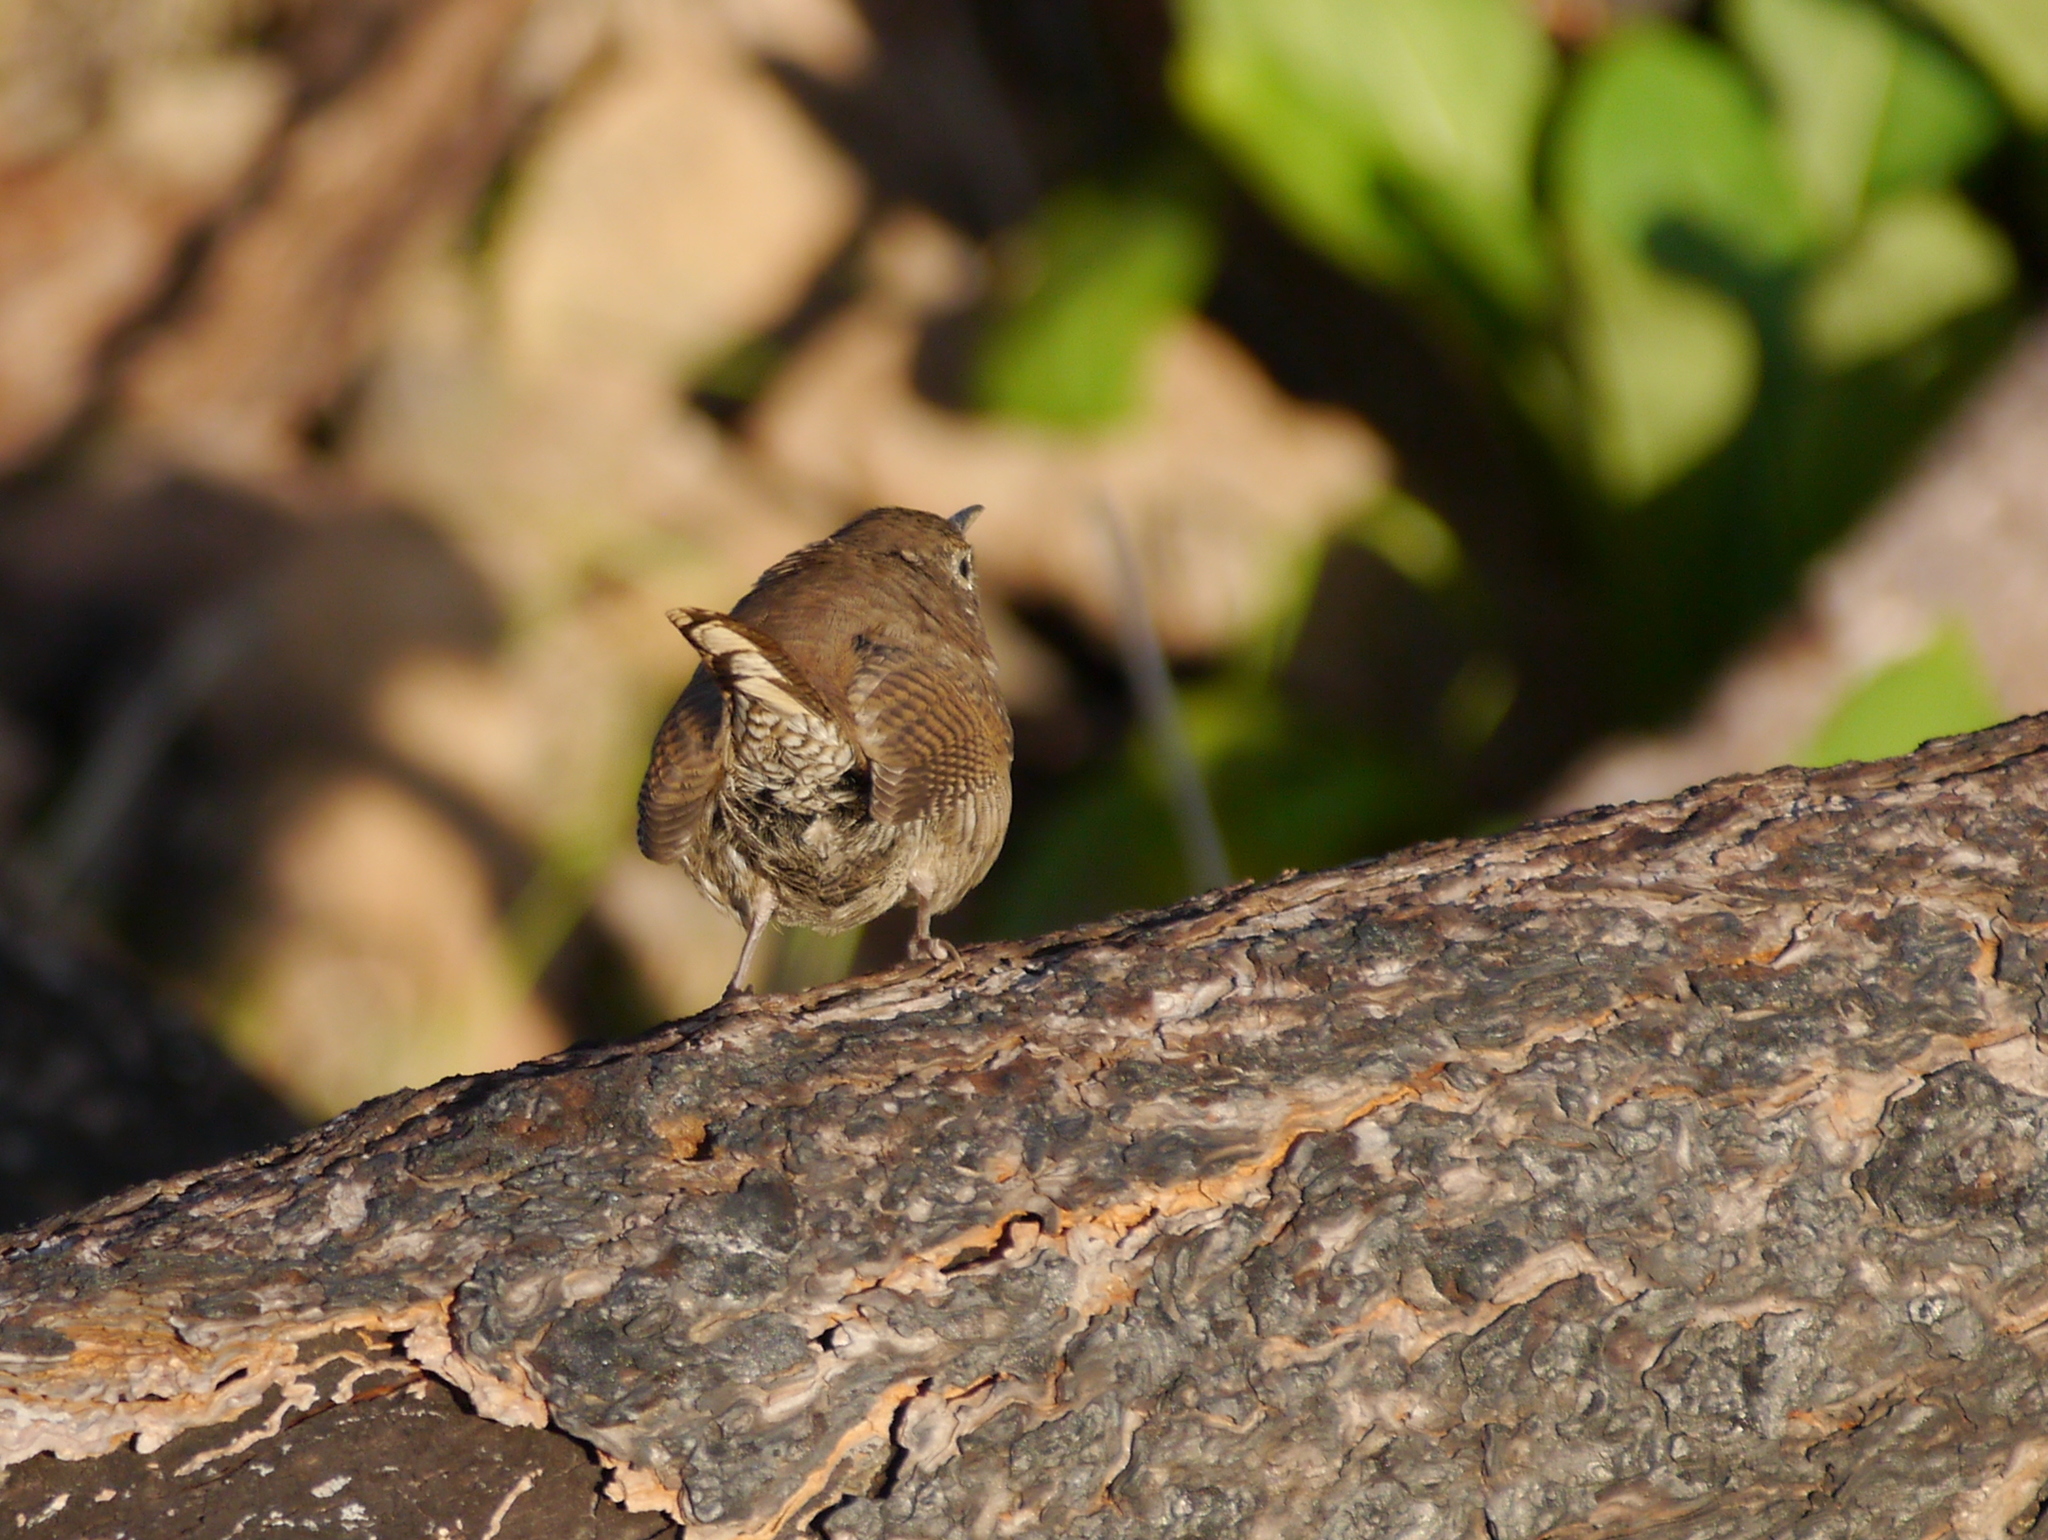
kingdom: Animalia
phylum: Chordata
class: Aves
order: Passeriformes
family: Troglodytidae
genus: Troglodytes
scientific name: Troglodytes aedon
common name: House wren
